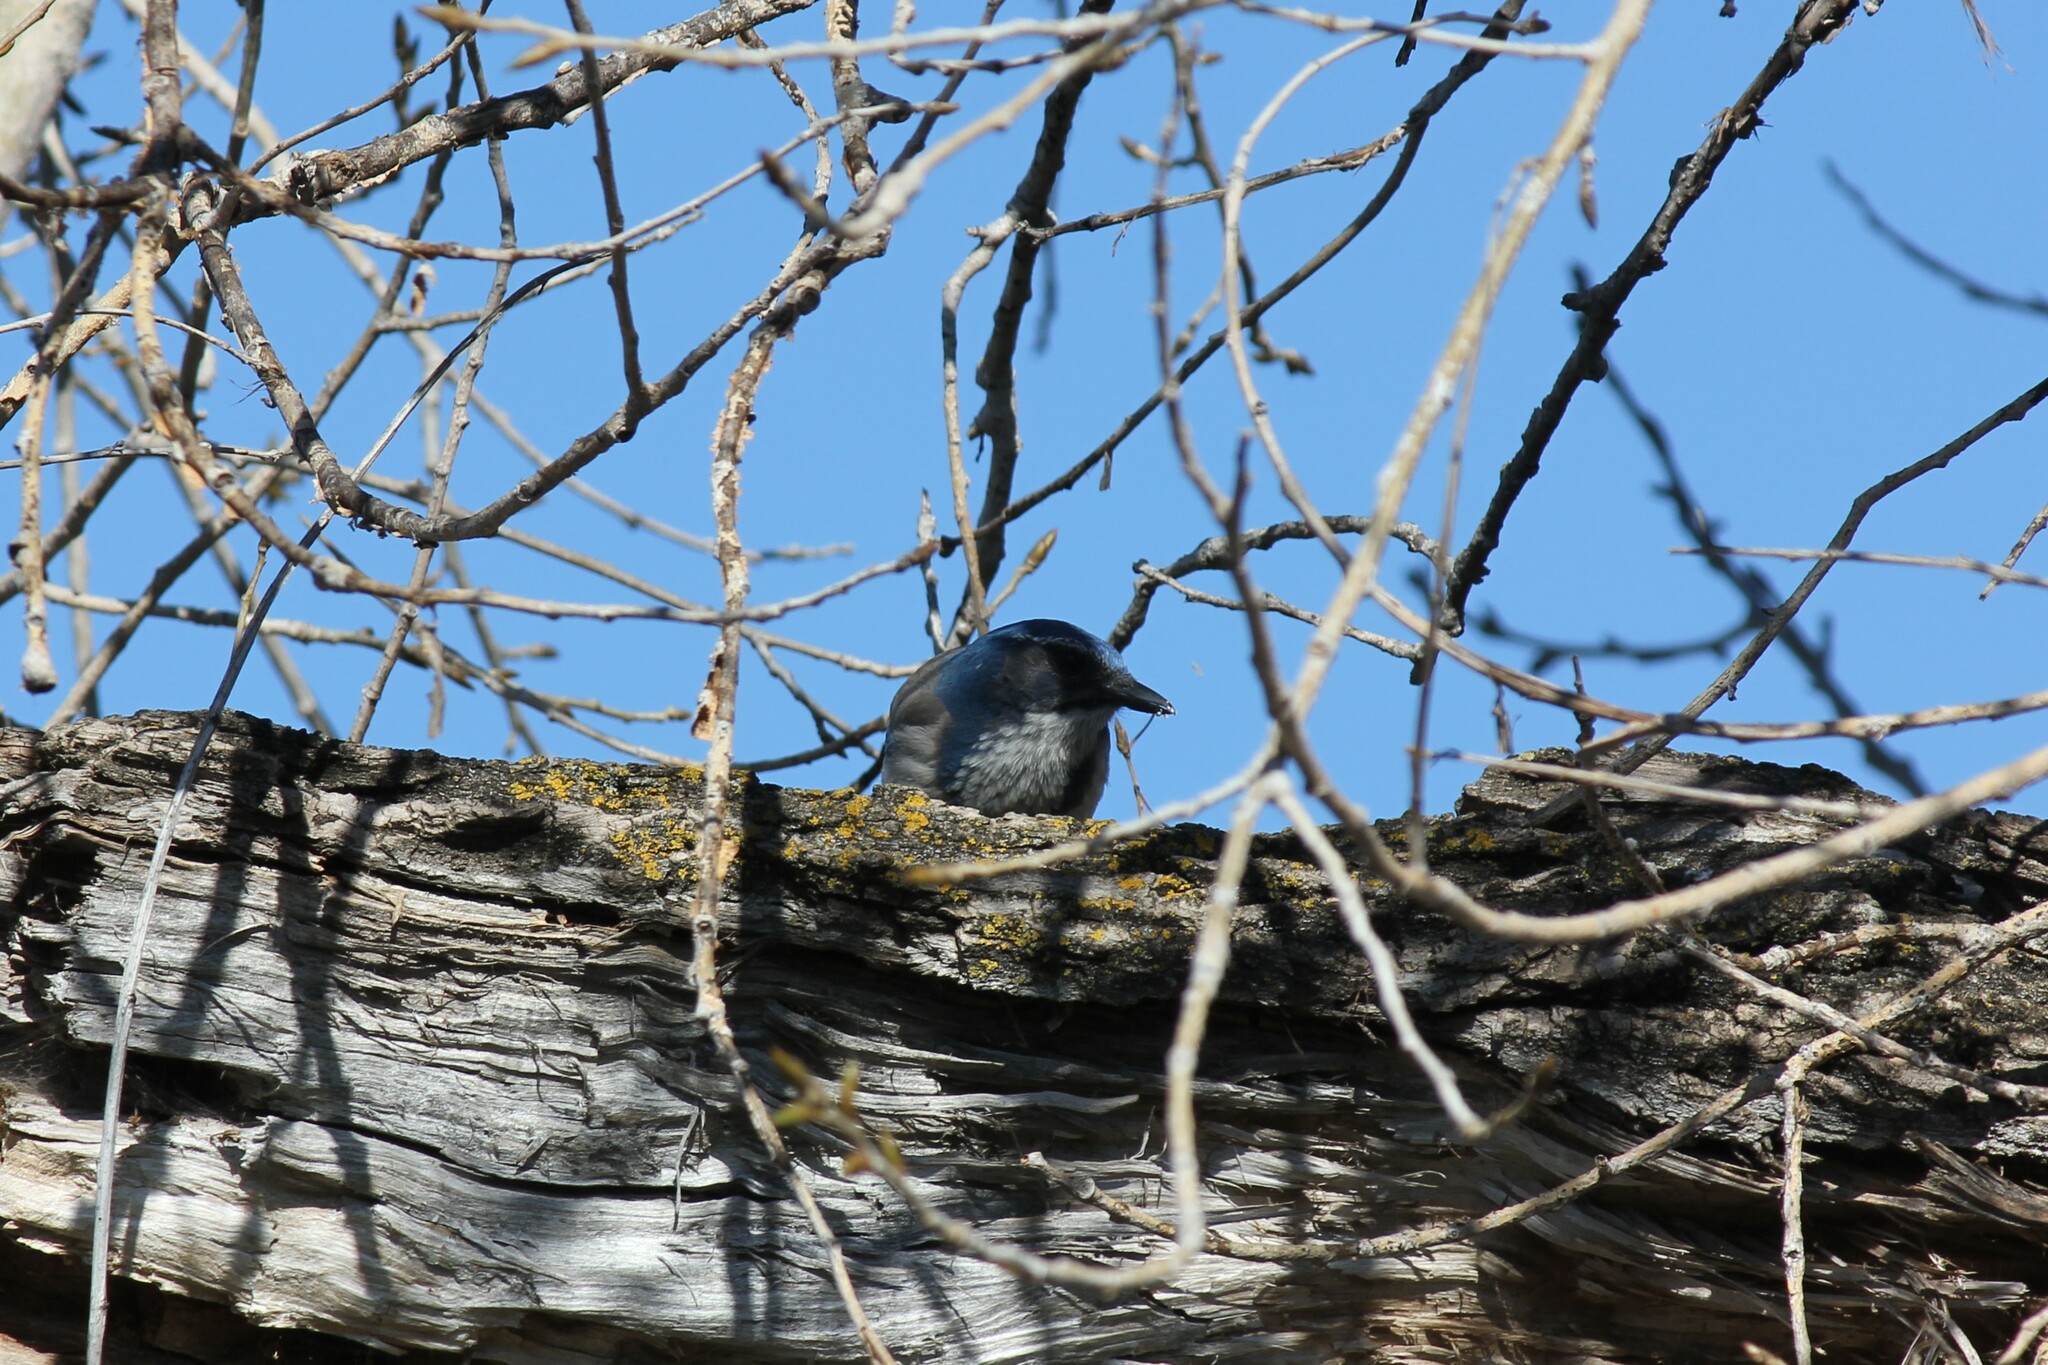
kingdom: Animalia
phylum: Chordata
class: Aves
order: Passeriformes
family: Corvidae
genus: Aphelocoma
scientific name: Aphelocoma californica
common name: California scrub-jay
